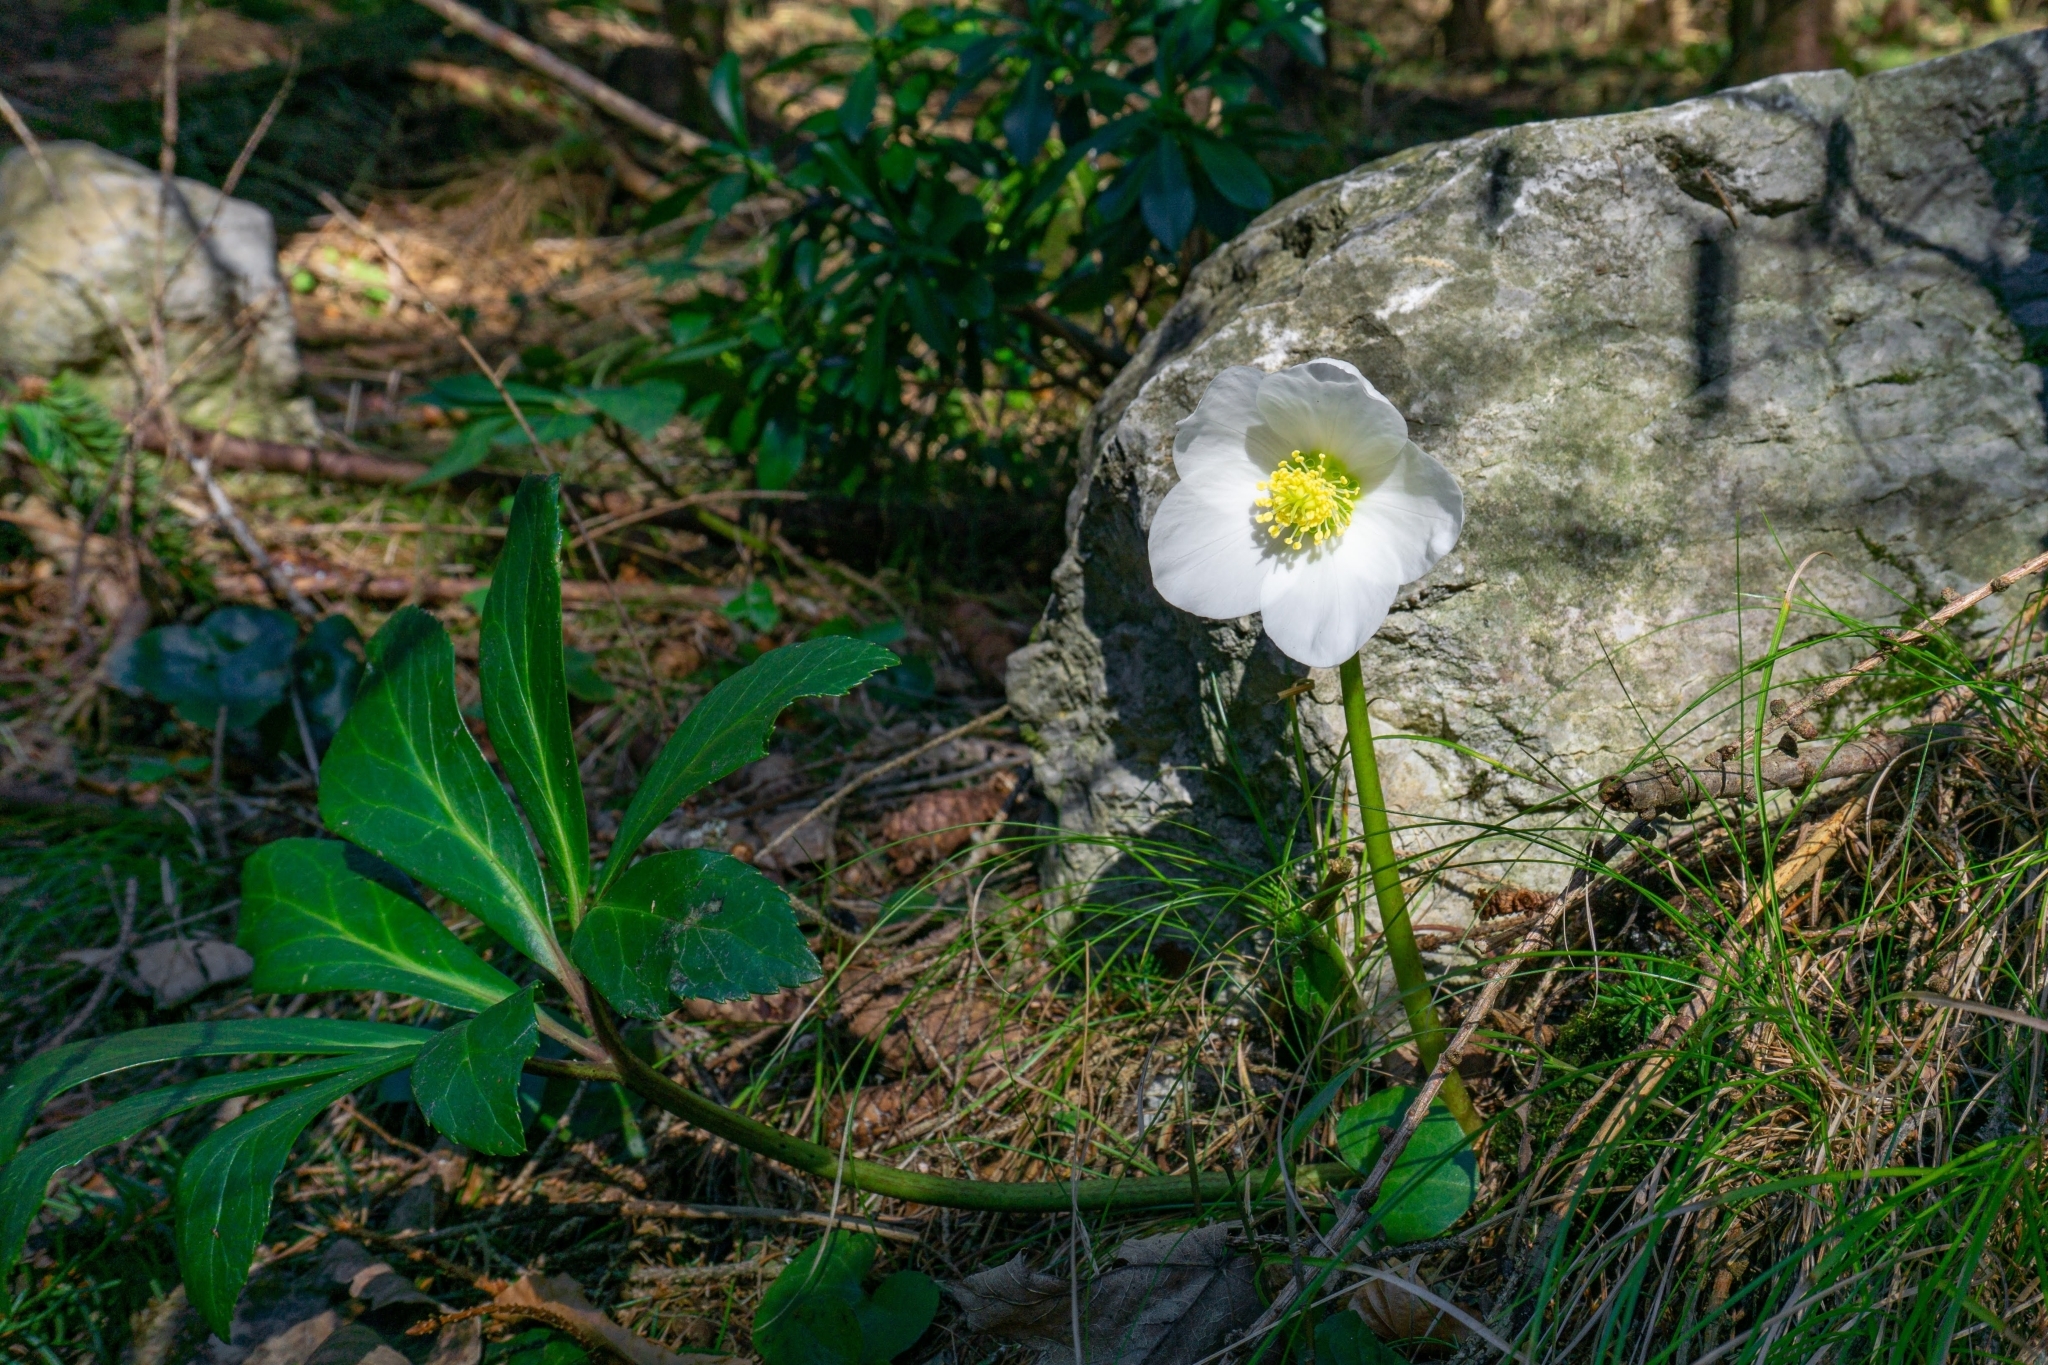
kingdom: Plantae
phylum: Tracheophyta
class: Magnoliopsida
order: Ranunculales
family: Ranunculaceae
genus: Helleborus
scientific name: Helleborus niger
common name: Black hellebore
